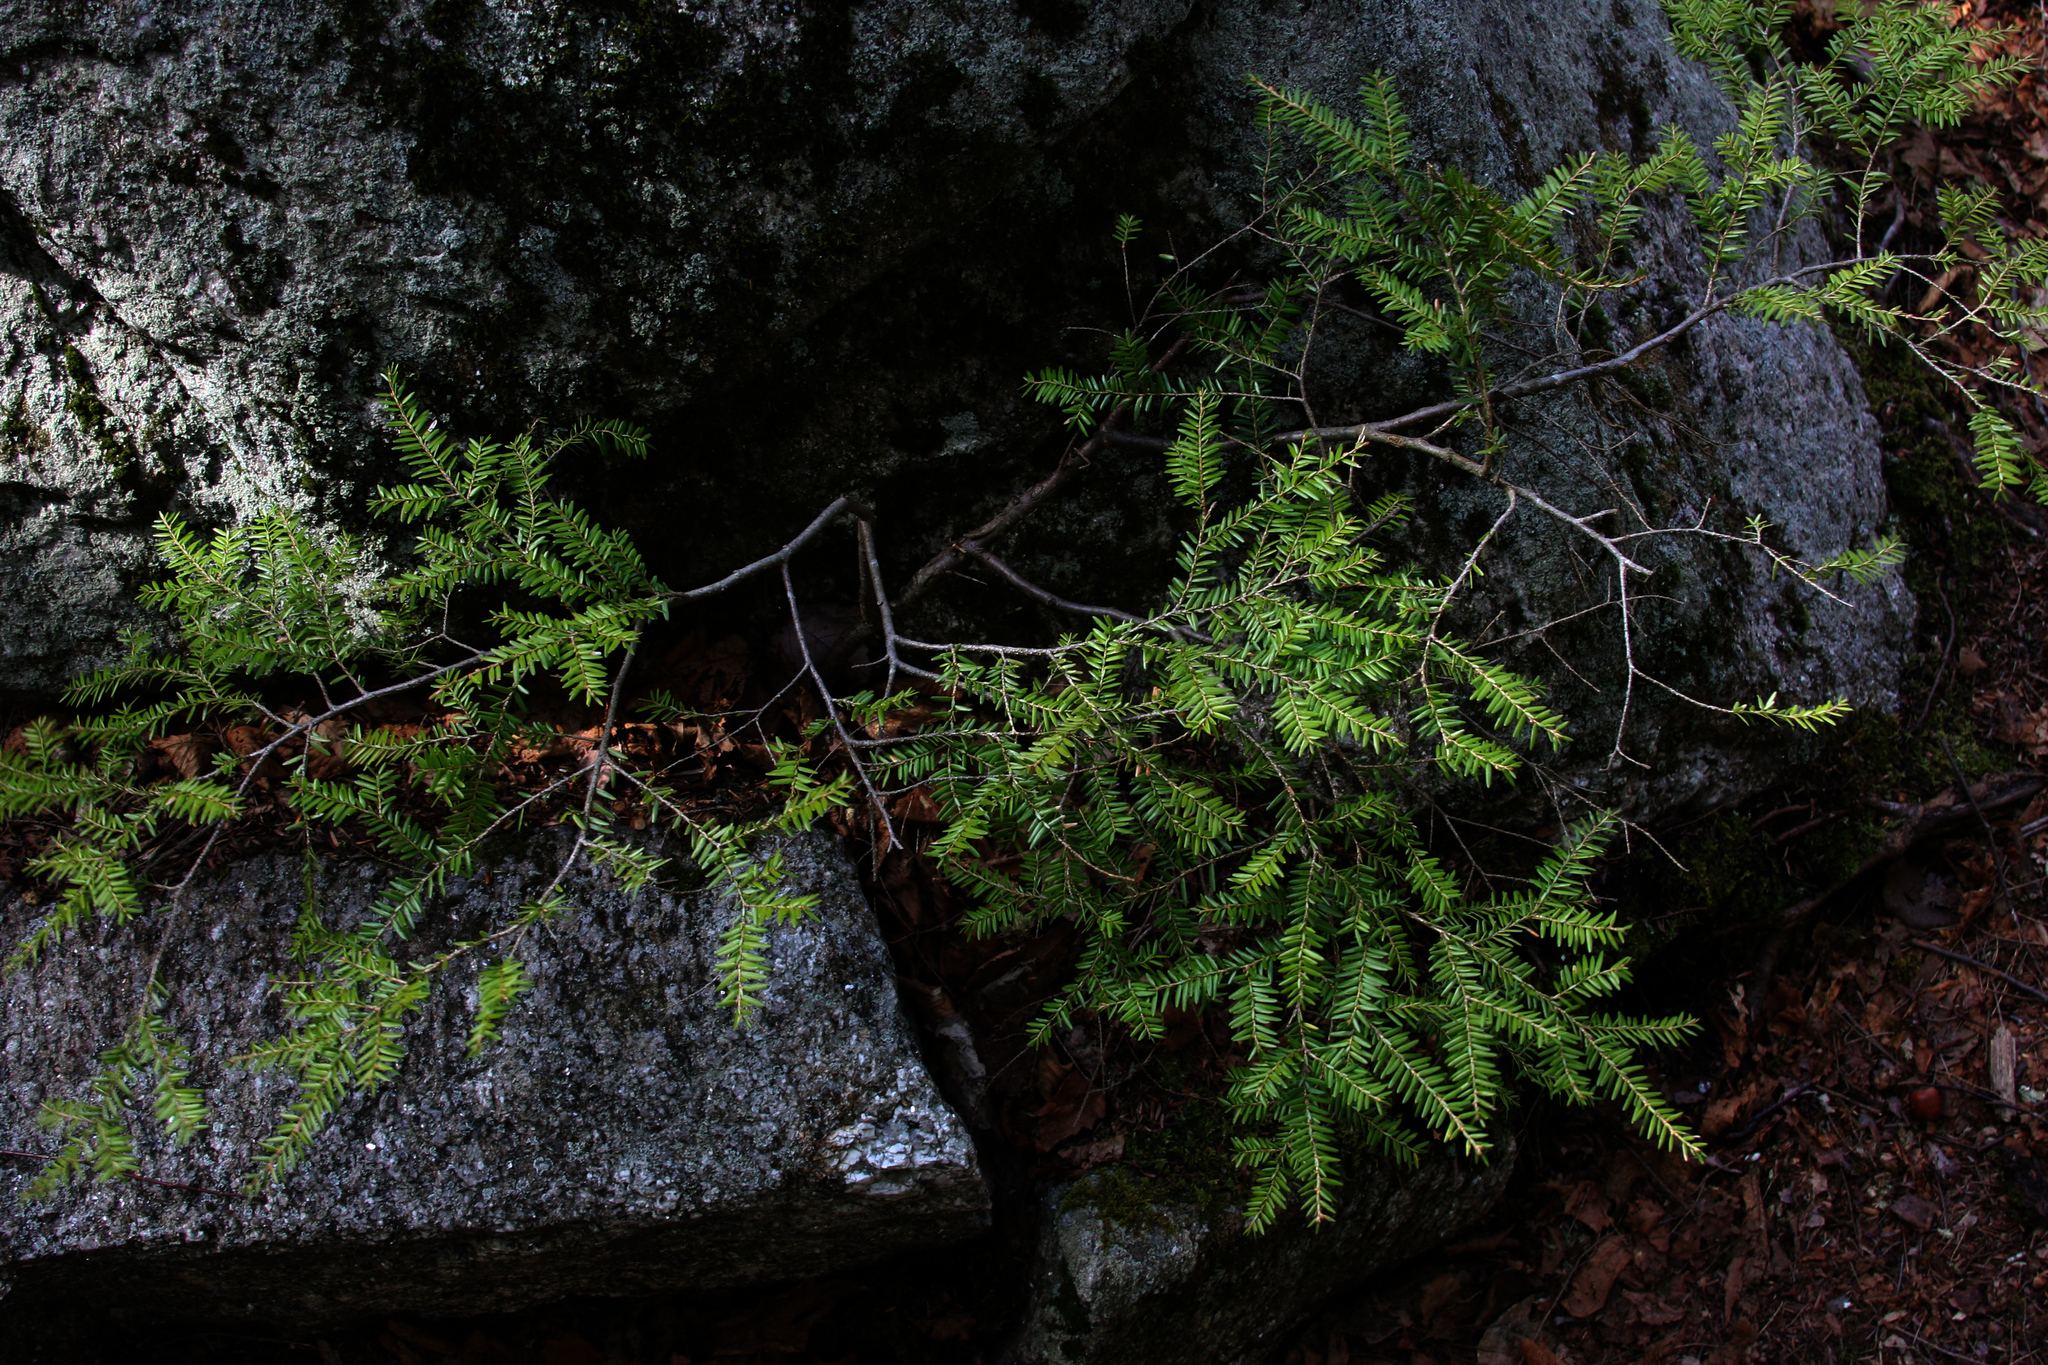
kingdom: Plantae
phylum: Tracheophyta
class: Pinopsida
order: Pinales
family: Pinaceae
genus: Tsuga
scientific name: Tsuga canadensis
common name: Eastern hemlock
